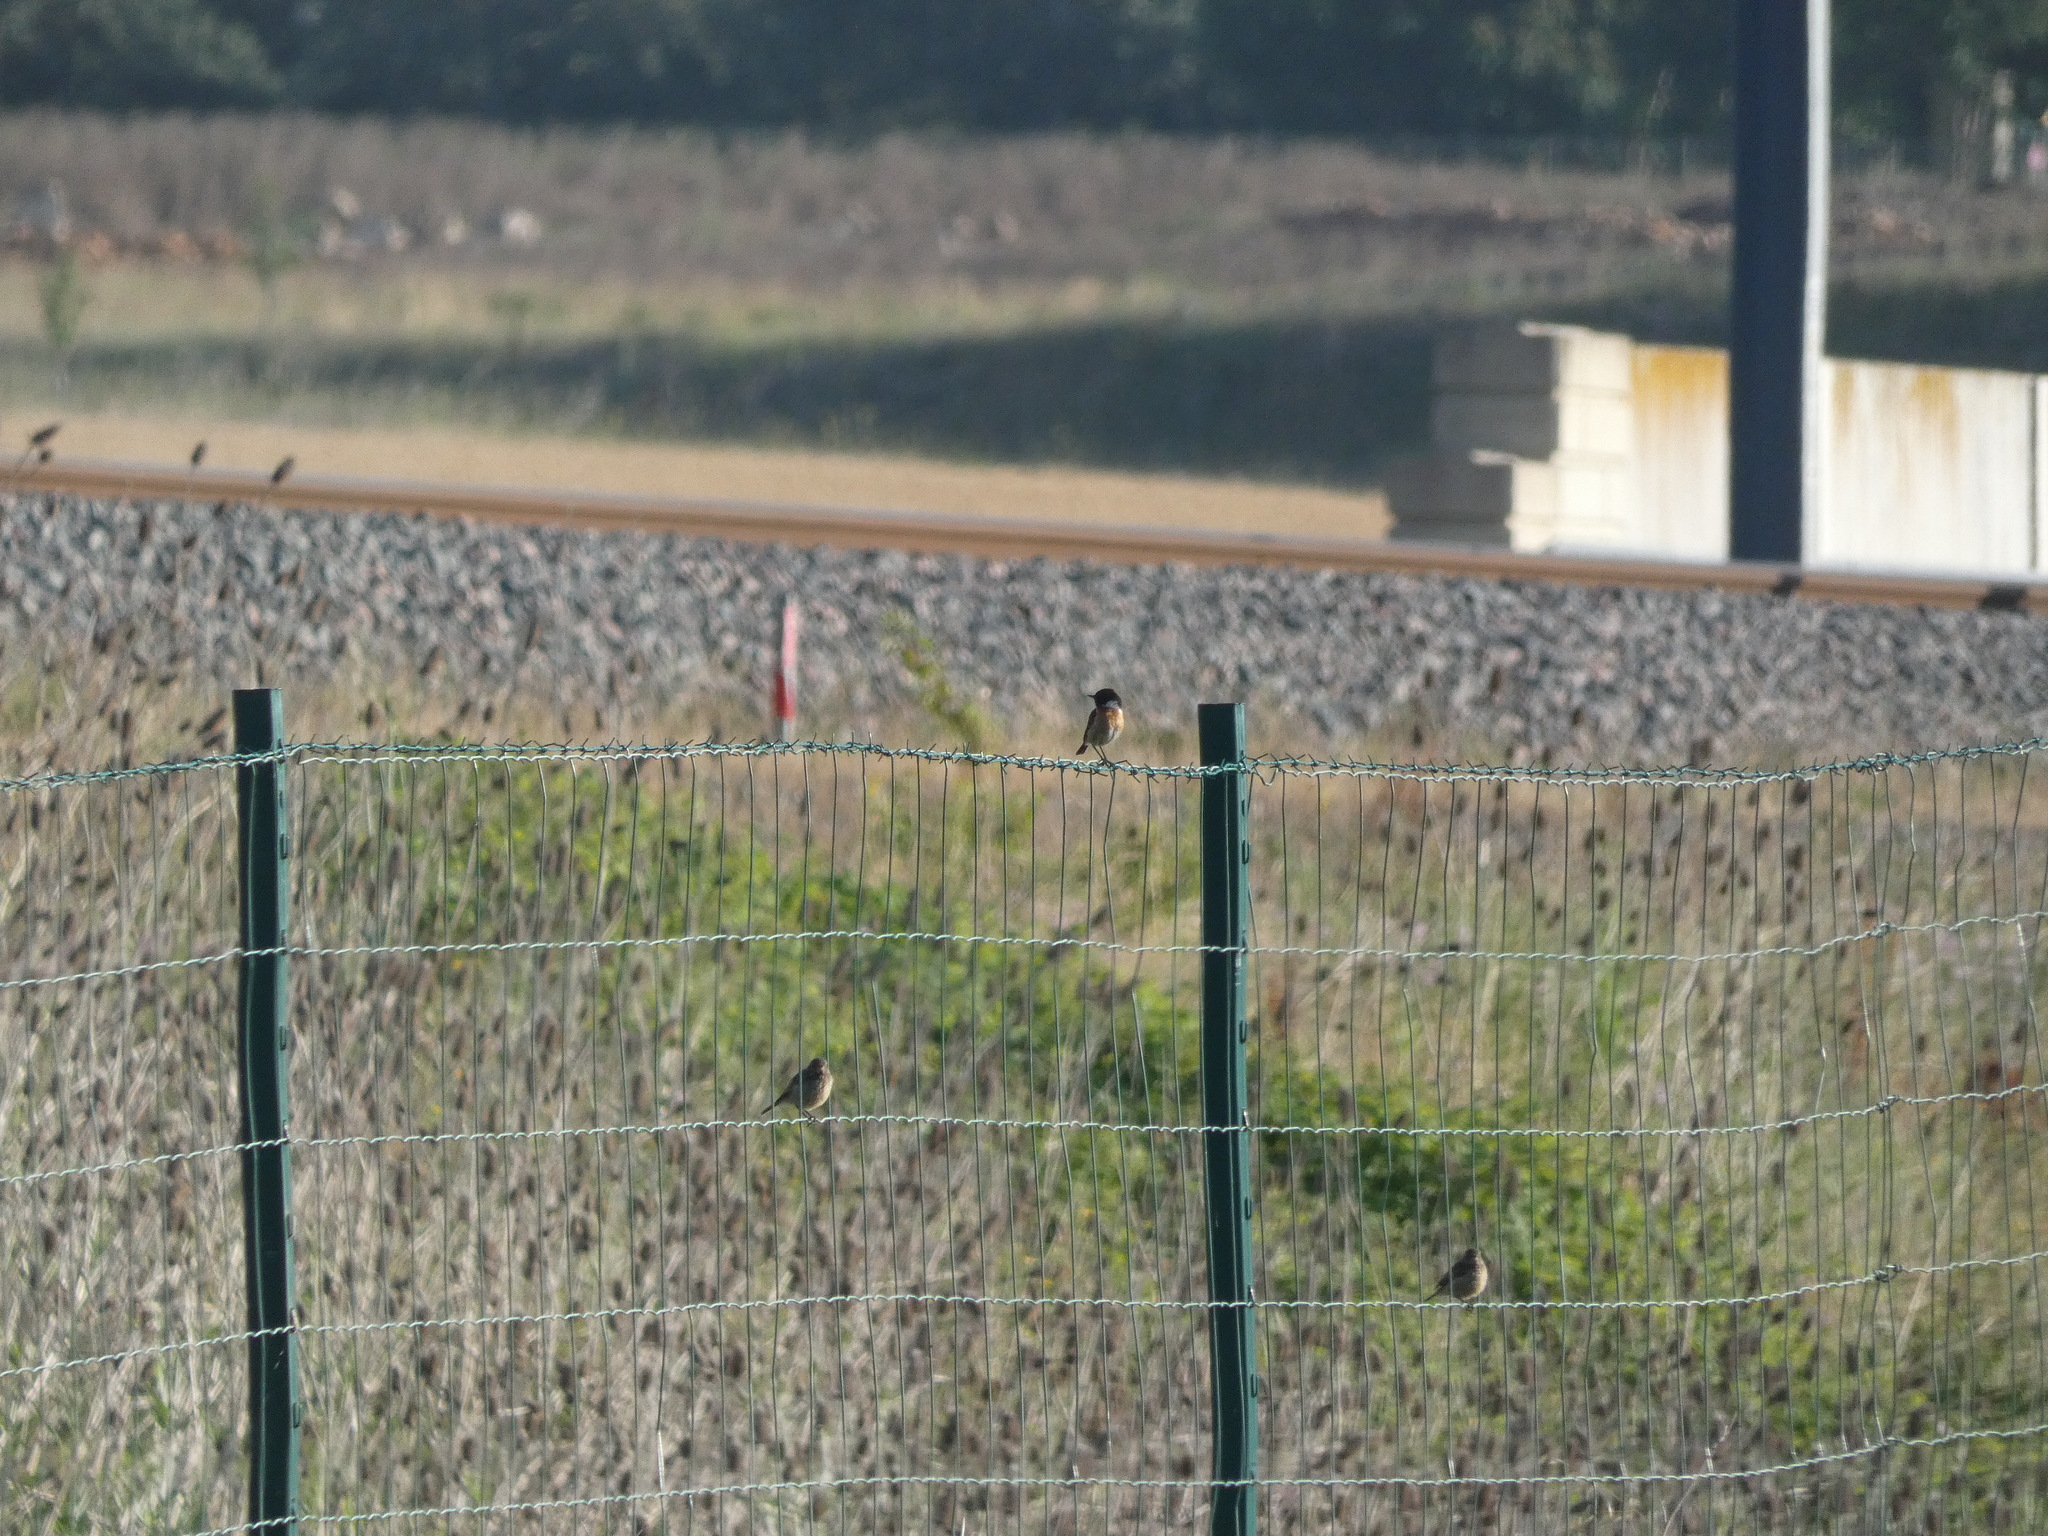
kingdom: Animalia
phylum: Chordata
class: Aves
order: Passeriformes
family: Muscicapidae
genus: Saxicola
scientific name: Saxicola rubicola
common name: European stonechat
